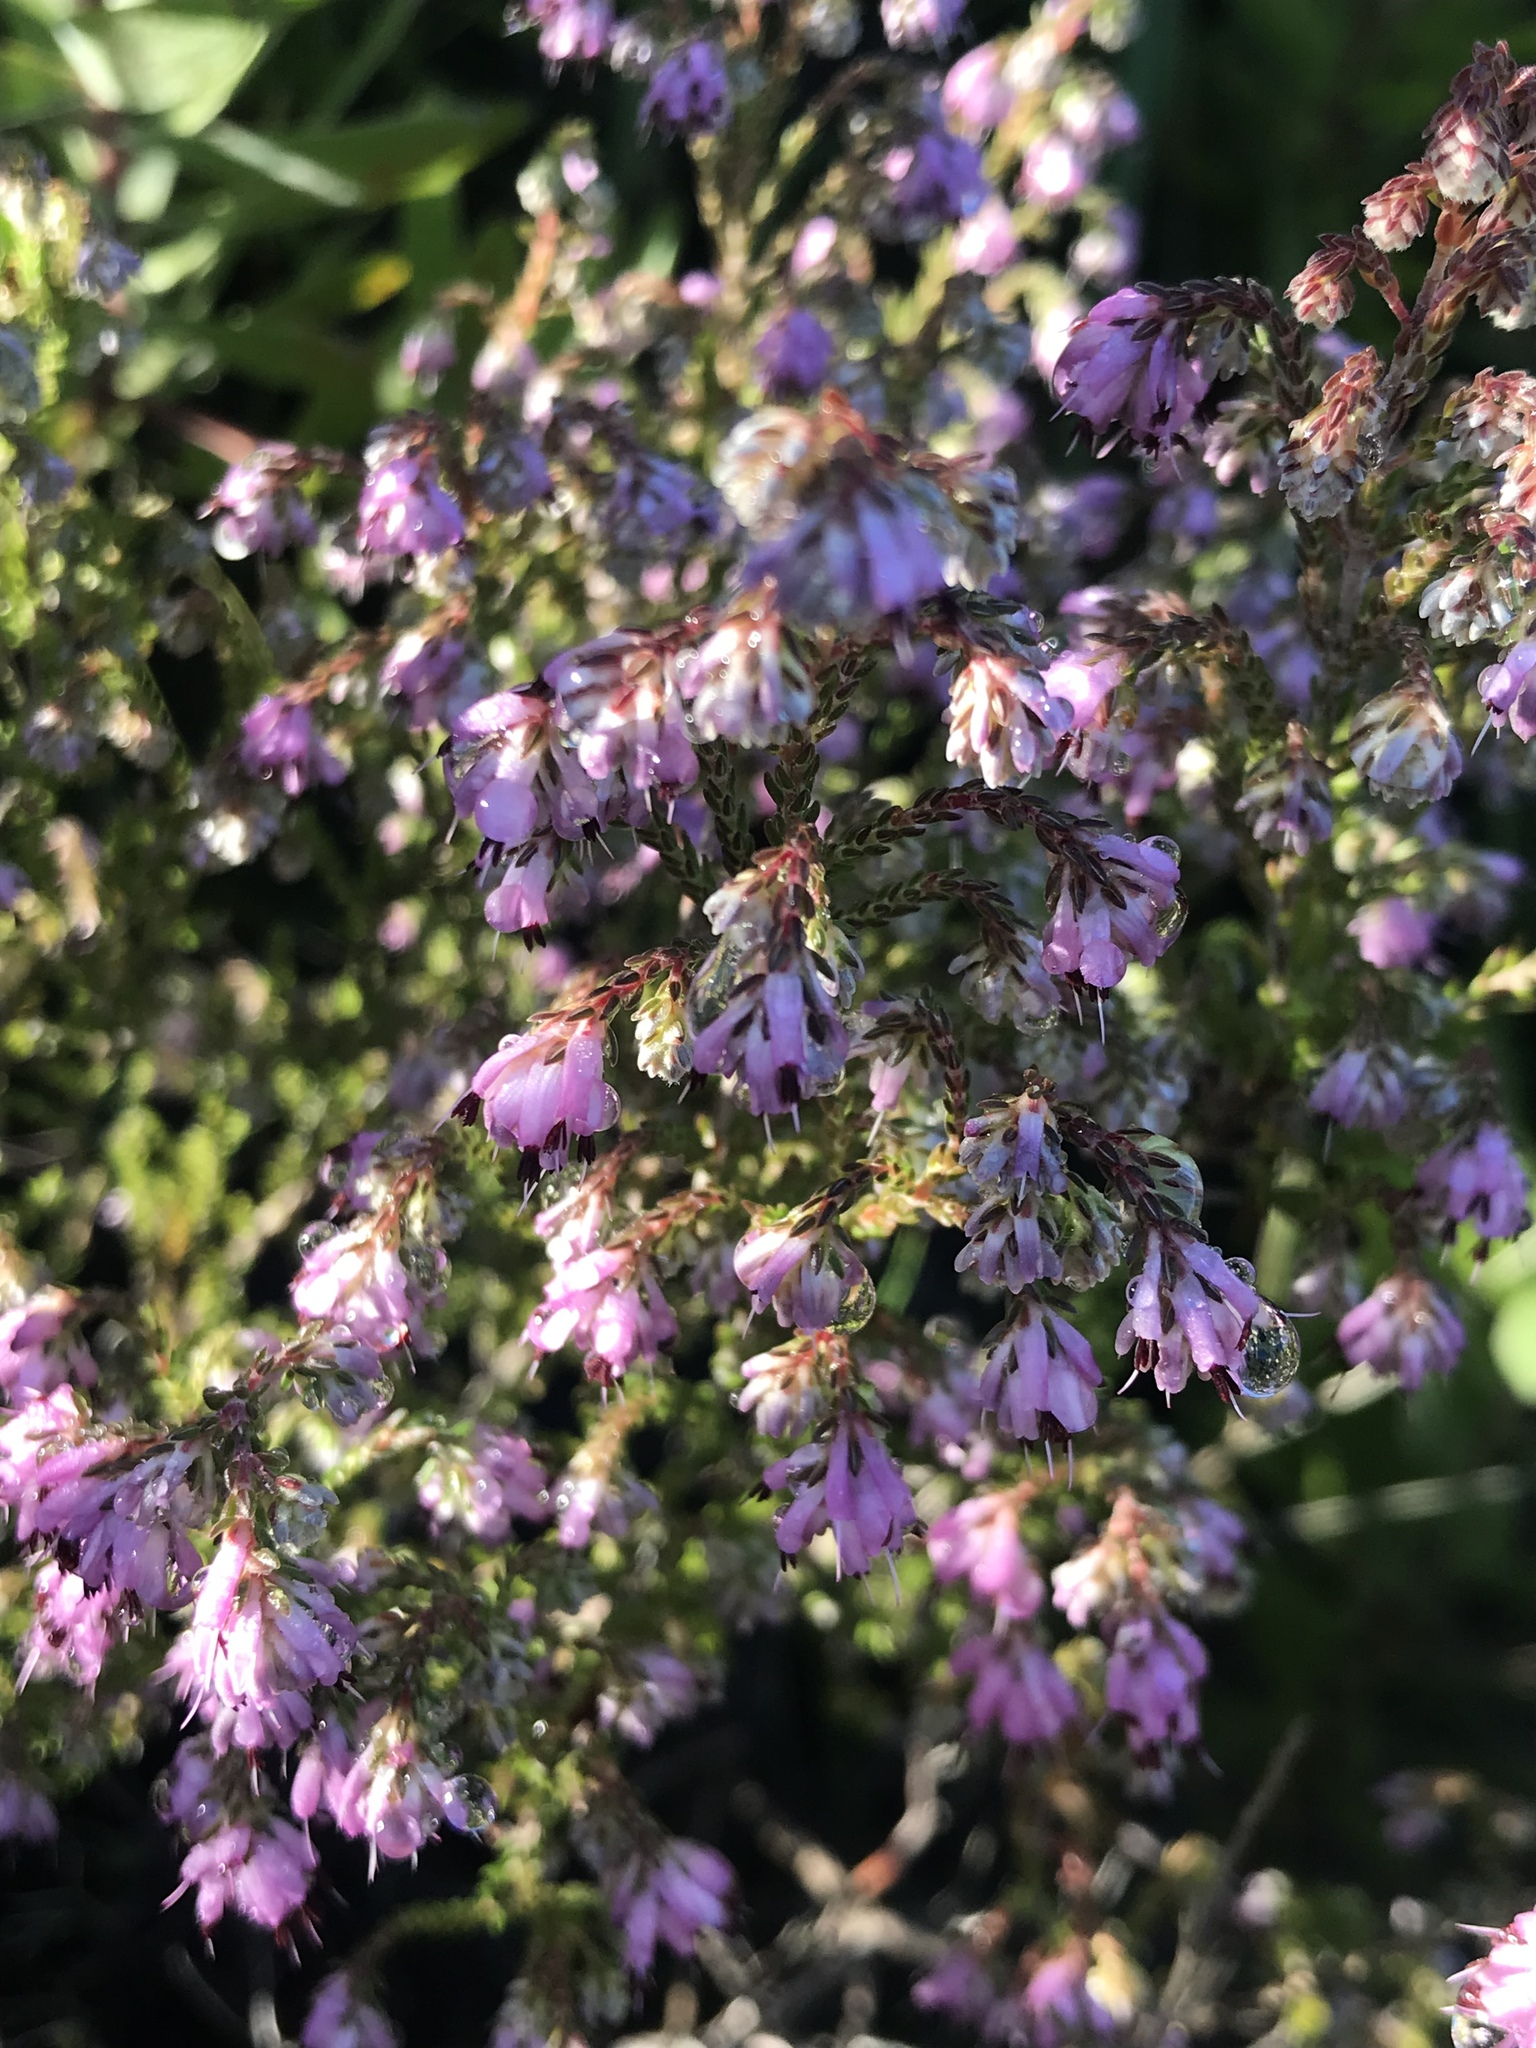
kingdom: Plantae
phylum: Tracheophyta
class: Magnoliopsida
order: Ericales
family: Ericaceae
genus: Erica
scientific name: Erica ericoides
